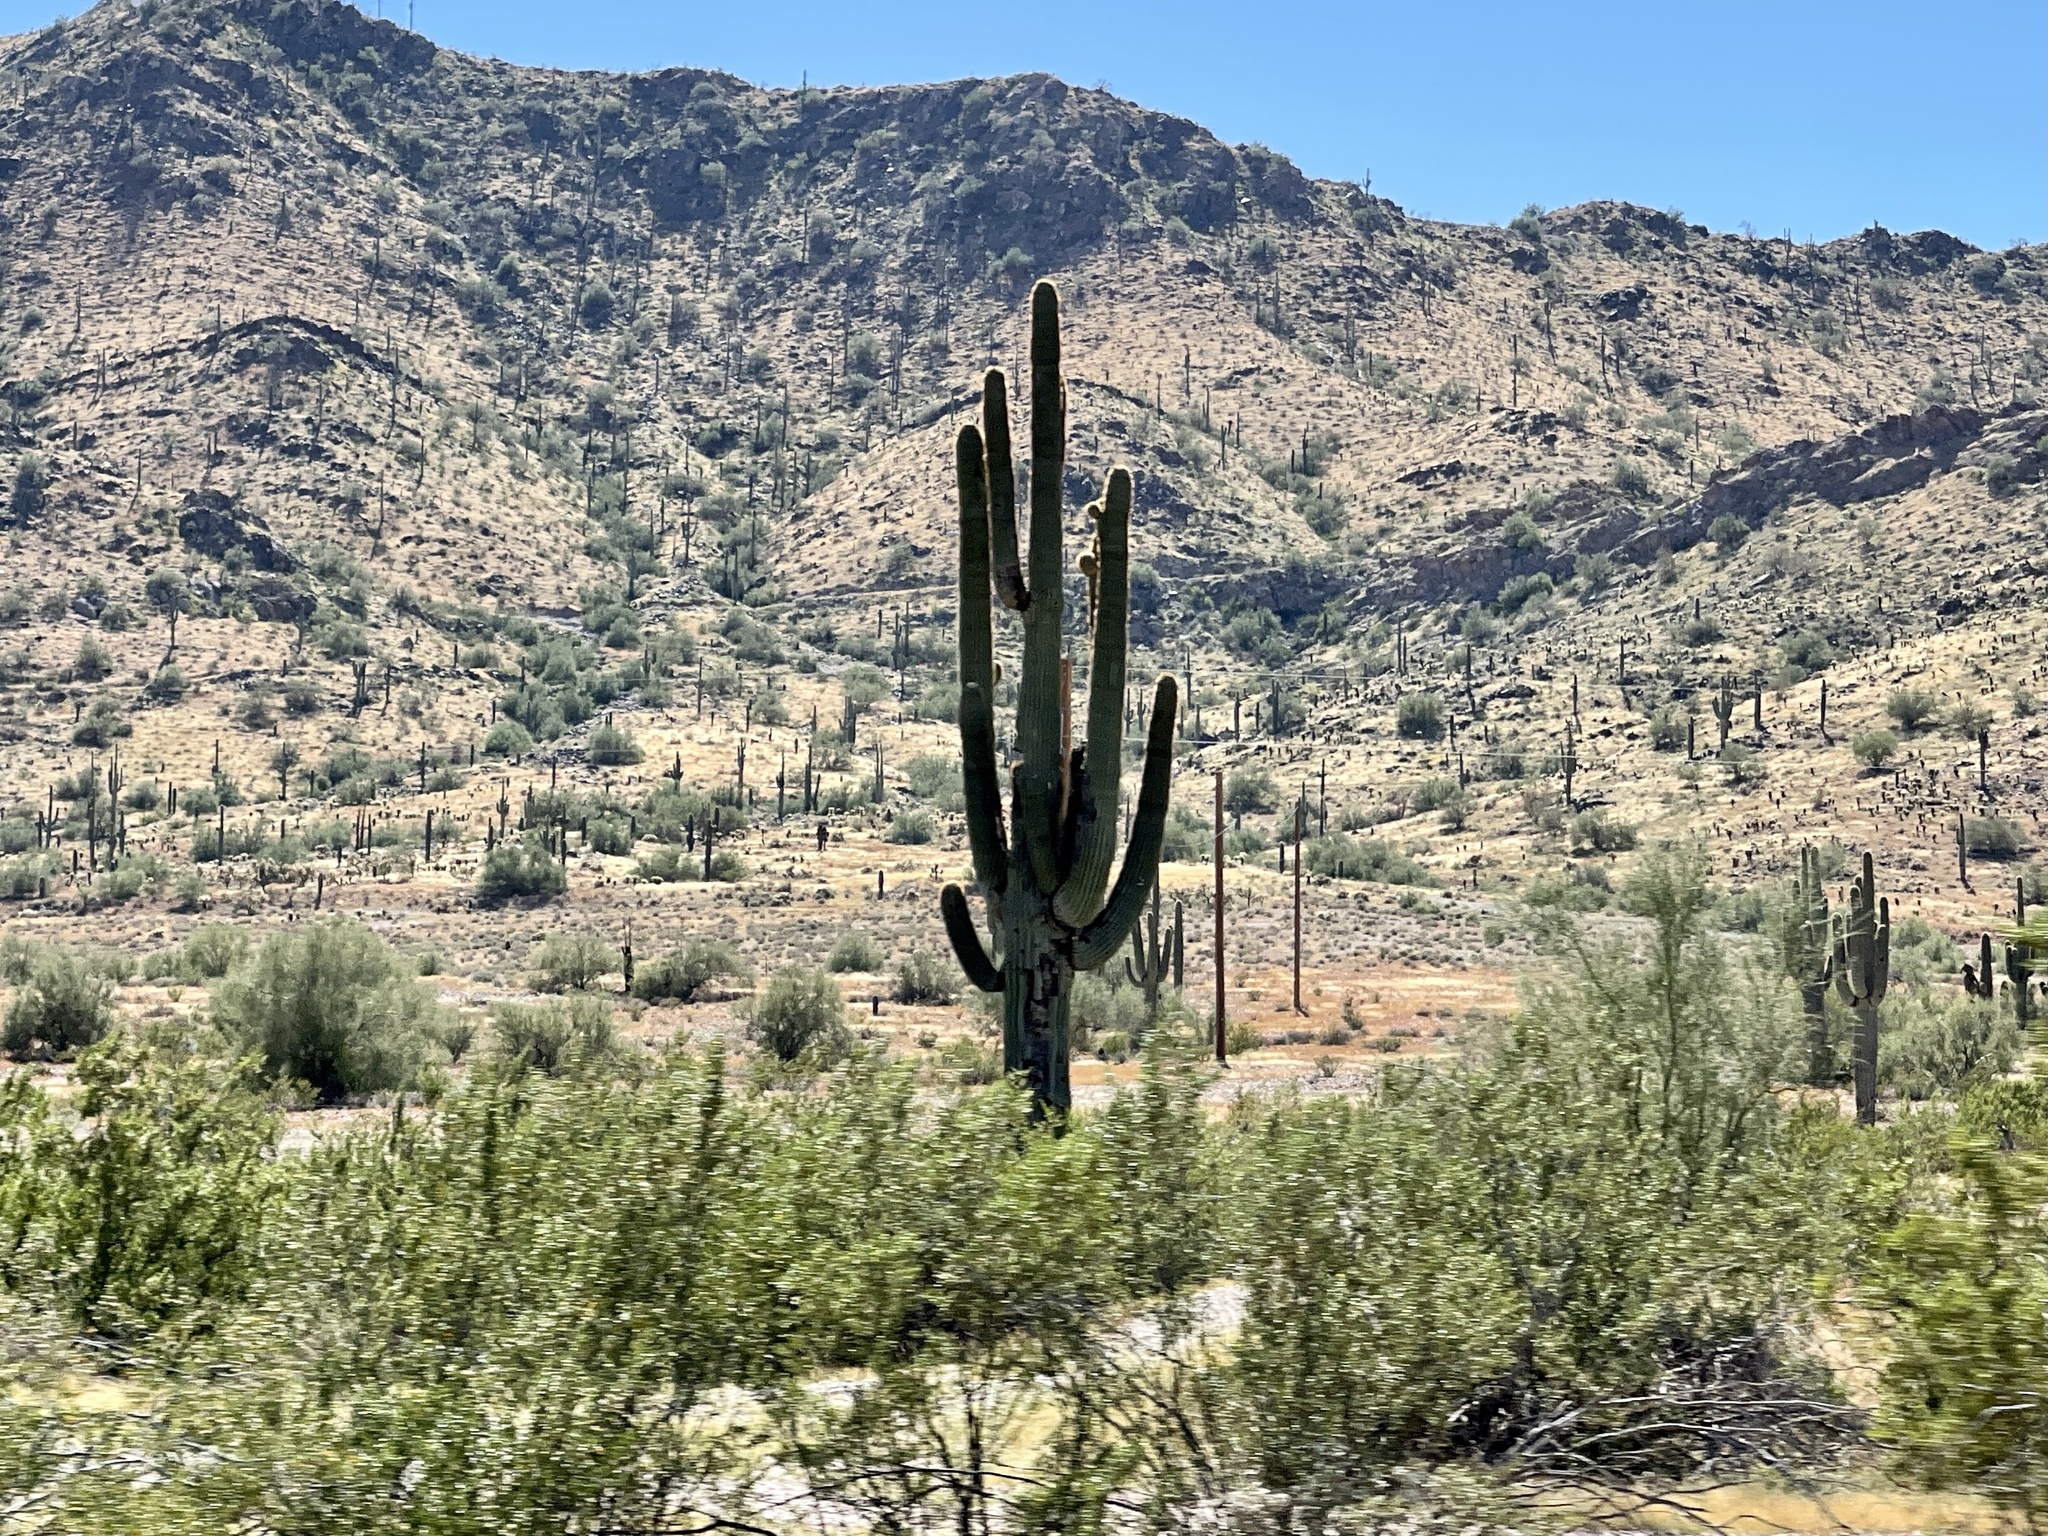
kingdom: Plantae
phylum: Tracheophyta
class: Magnoliopsida
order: Caryophyllales
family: Cactaceae
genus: Carnegiea
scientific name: Carnegiea gigantea
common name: Saguaro
